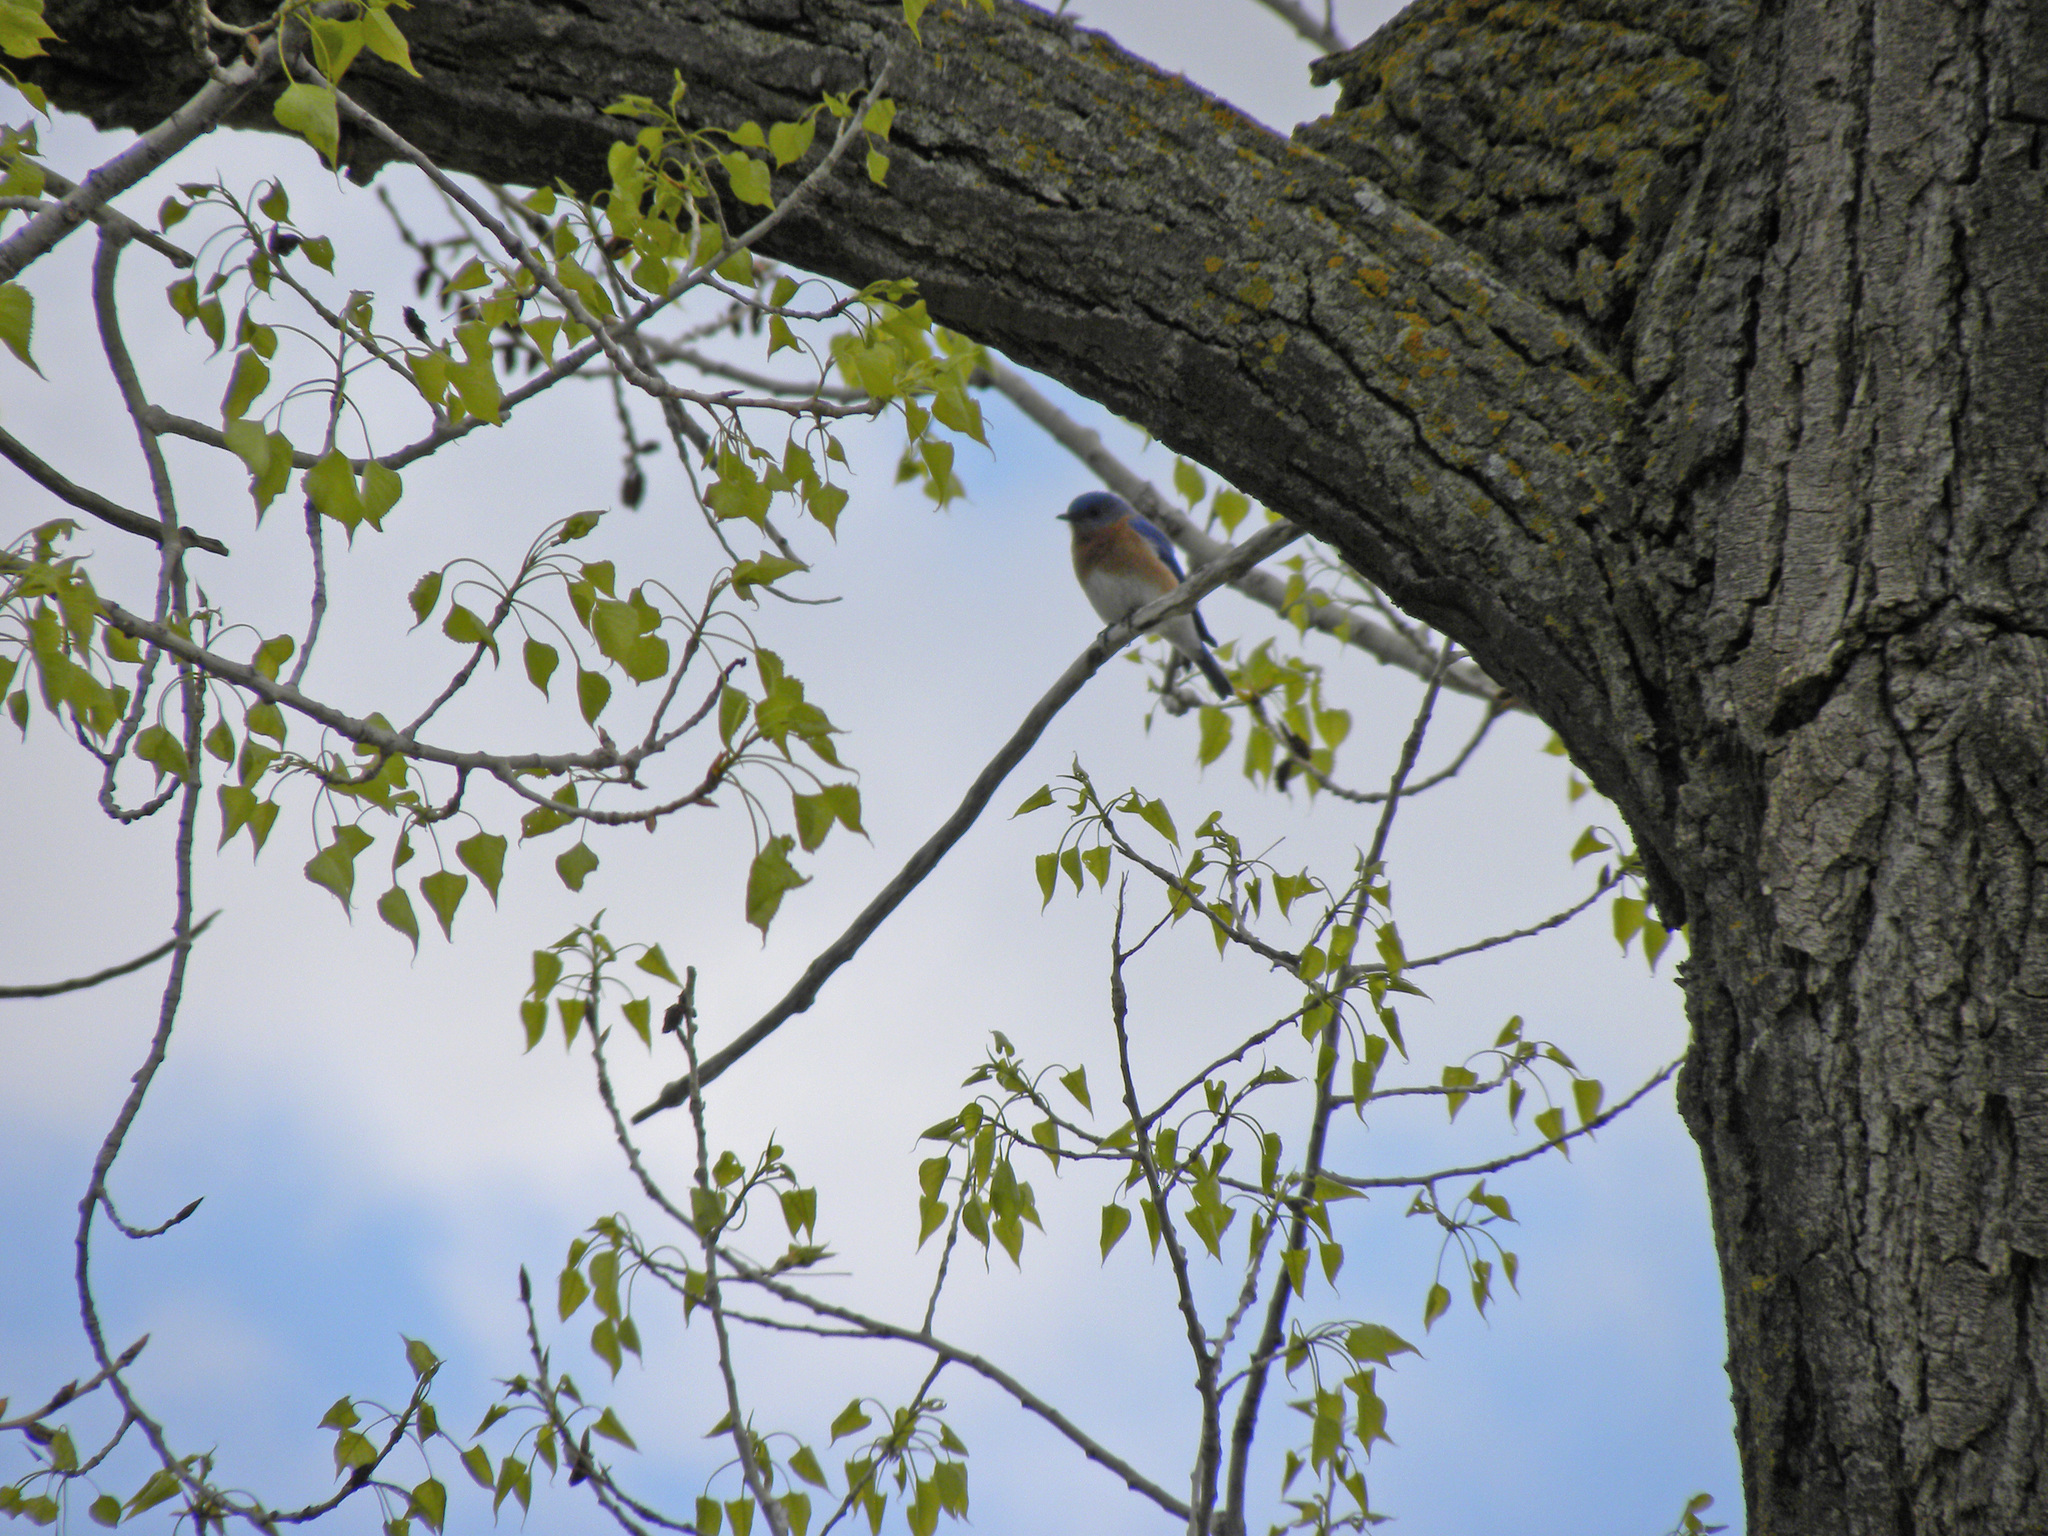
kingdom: Animalia
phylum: Chordata
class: Aves
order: Passeriformes
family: Turdidae
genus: Sialia
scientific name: Sialia sialis
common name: Eastern bluebird
